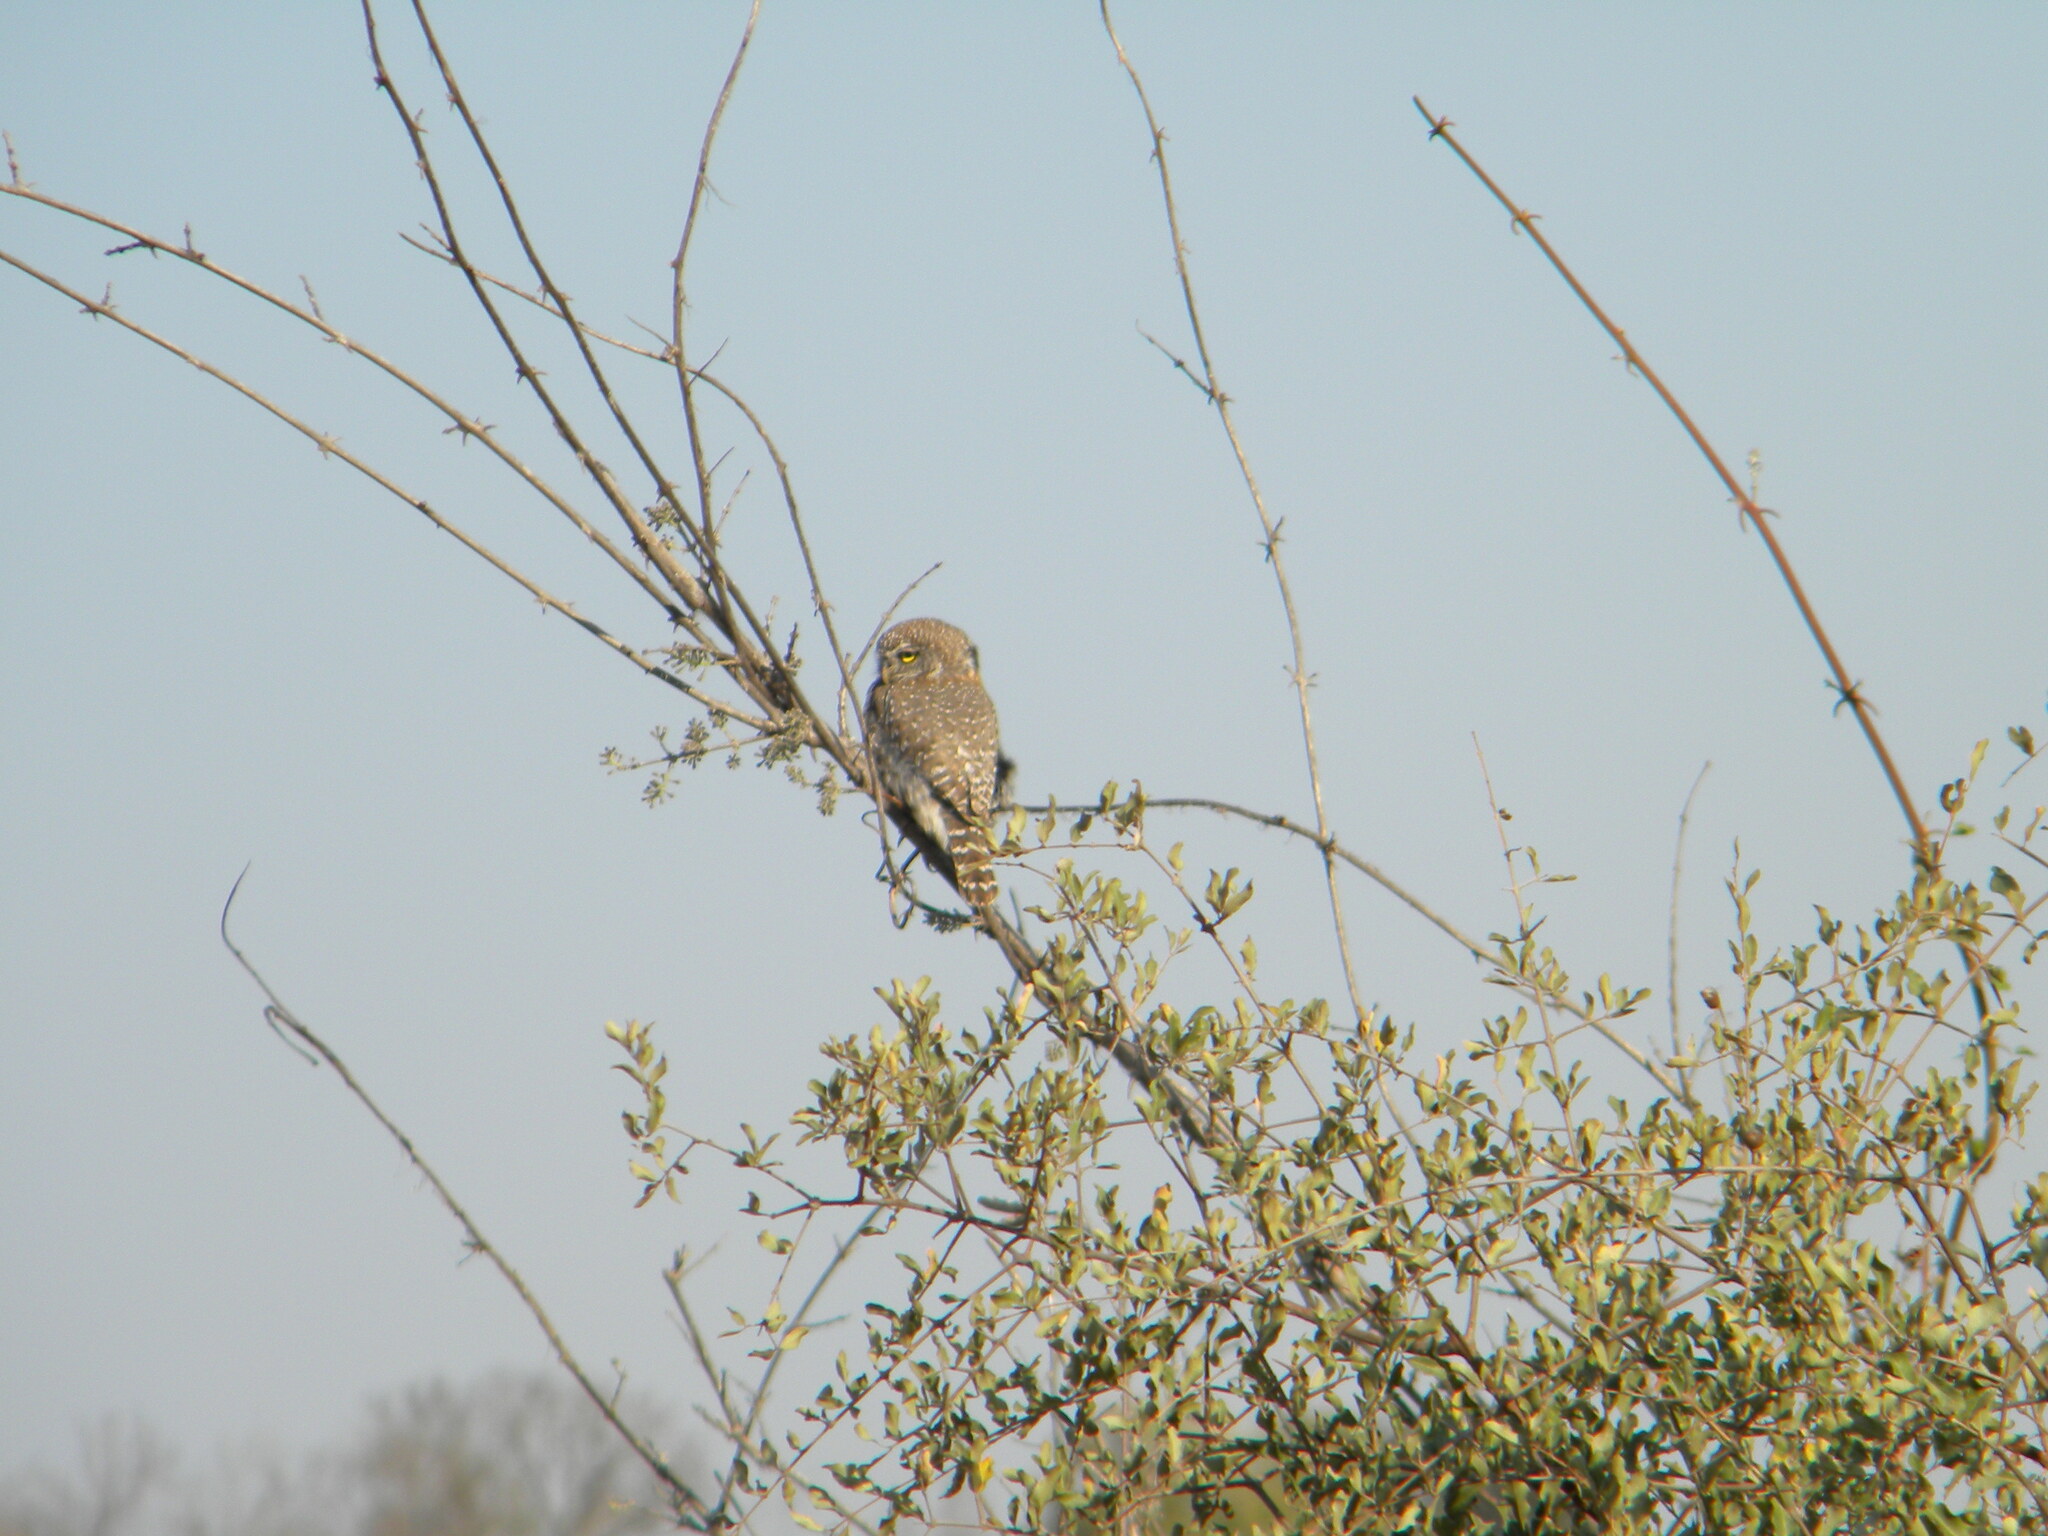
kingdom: Animalia
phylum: Chordata
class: Aves
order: Strigiformes
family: Strigidae
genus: Glaucidium
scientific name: Glaucidium perlatum
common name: Pearl-spotted owlet
